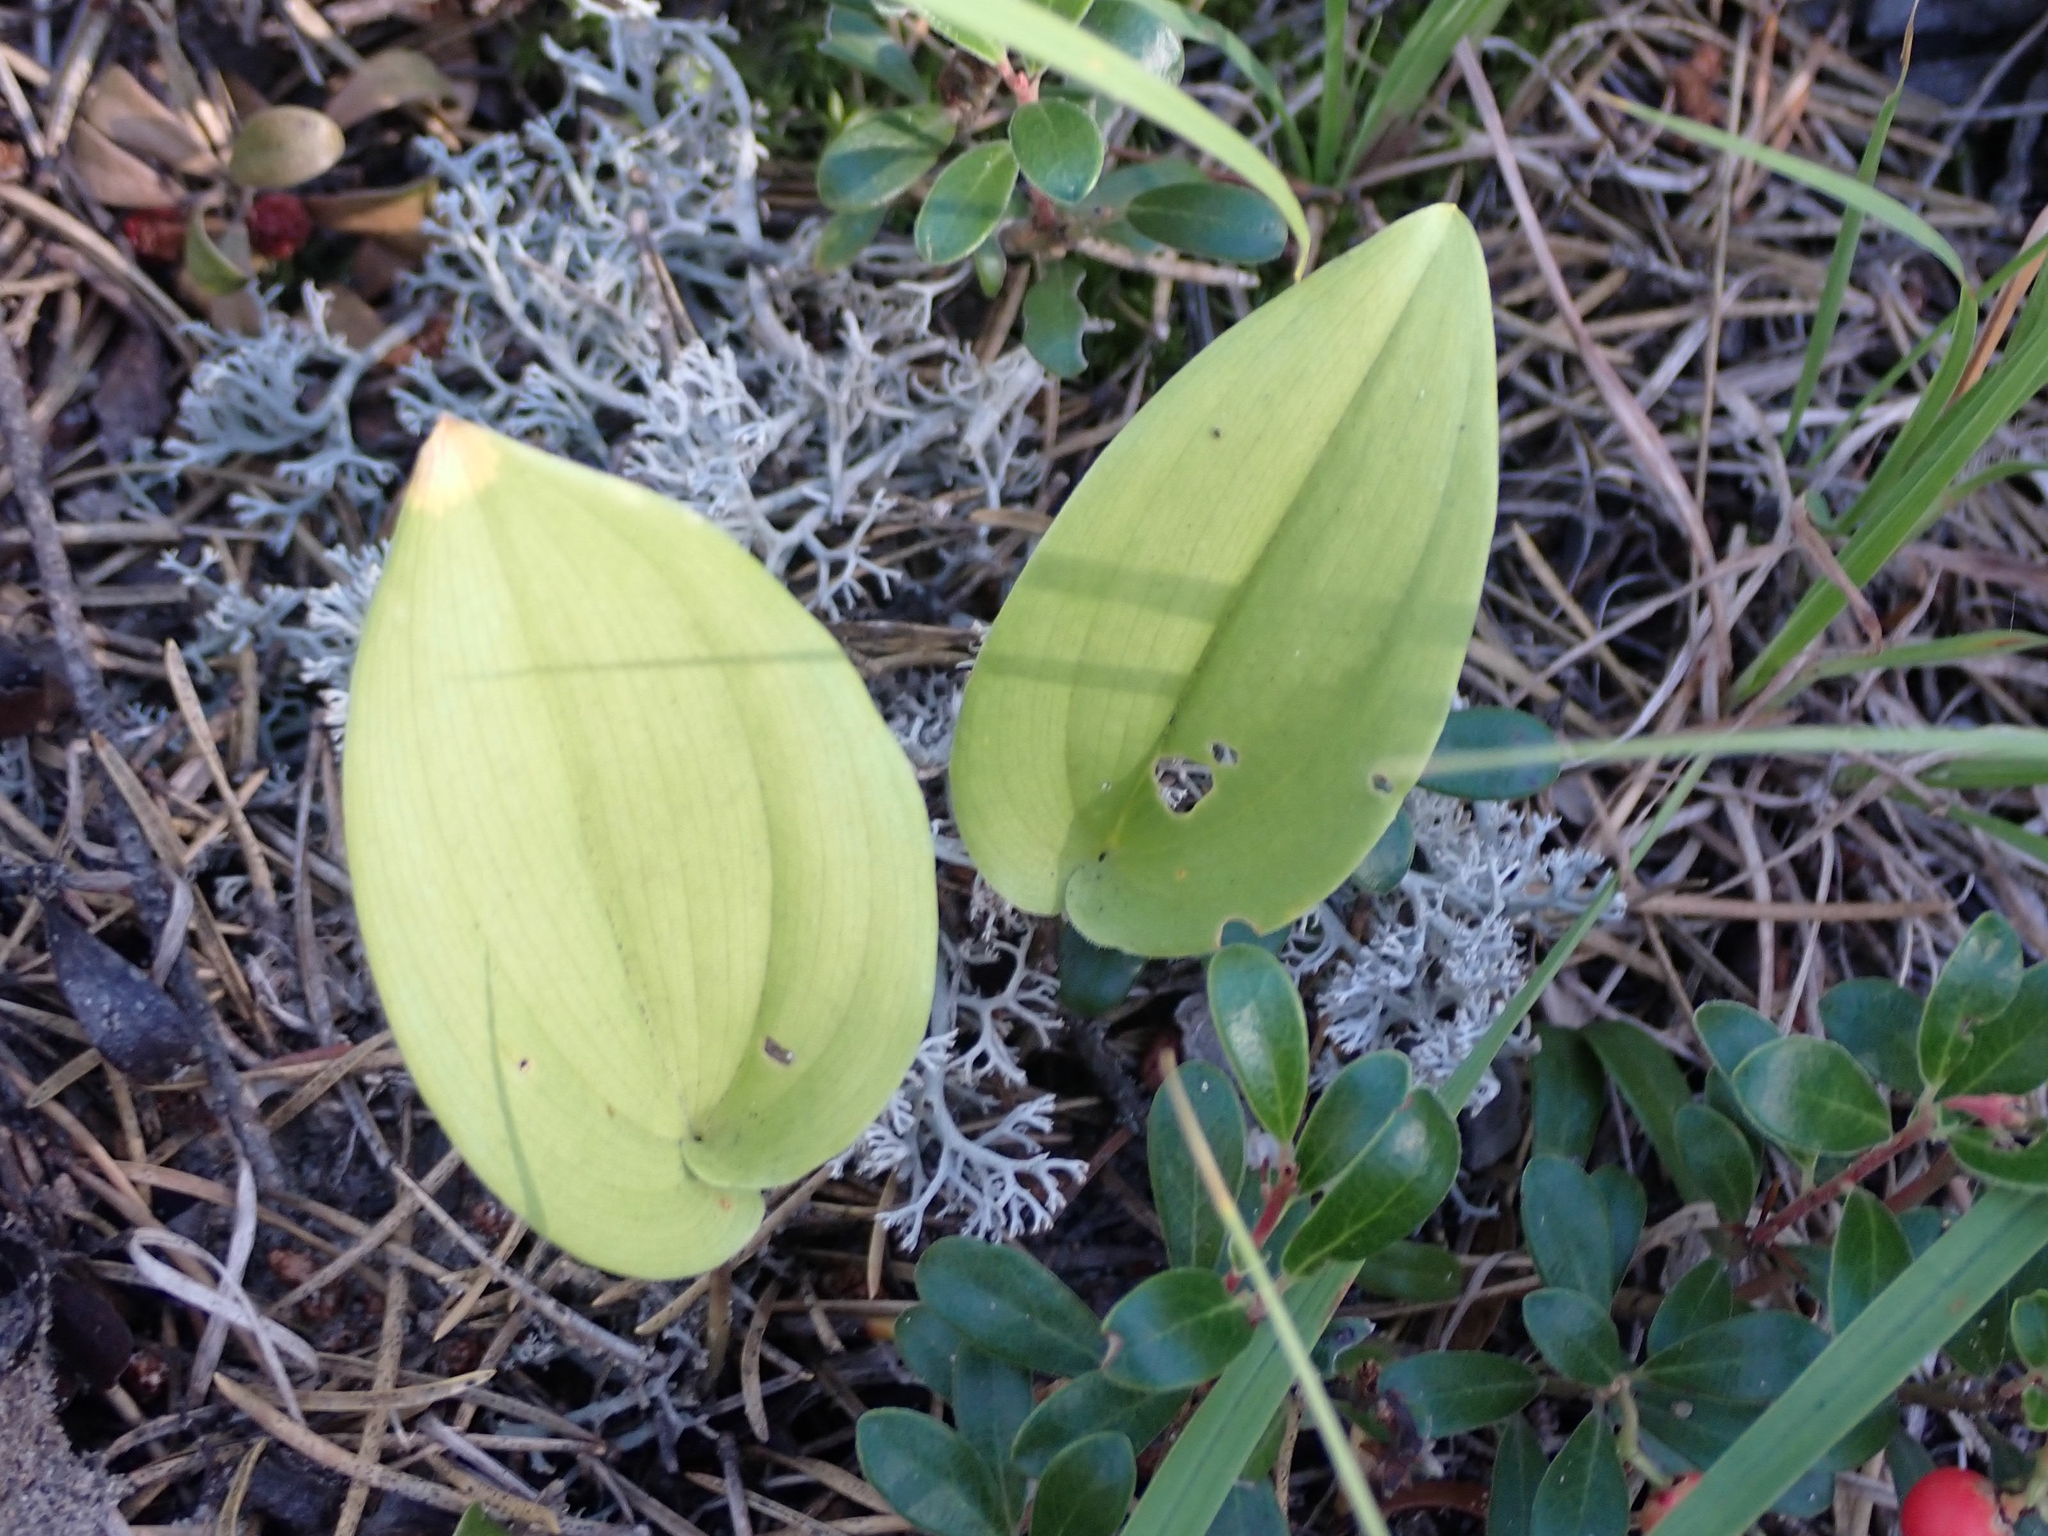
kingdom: Plantae
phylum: Tracheophyta
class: Liliopsida
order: Asparagales
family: Asparagaceae
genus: Maianthemum
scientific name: Maianthemum canadense
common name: False lily-of-the-valley
